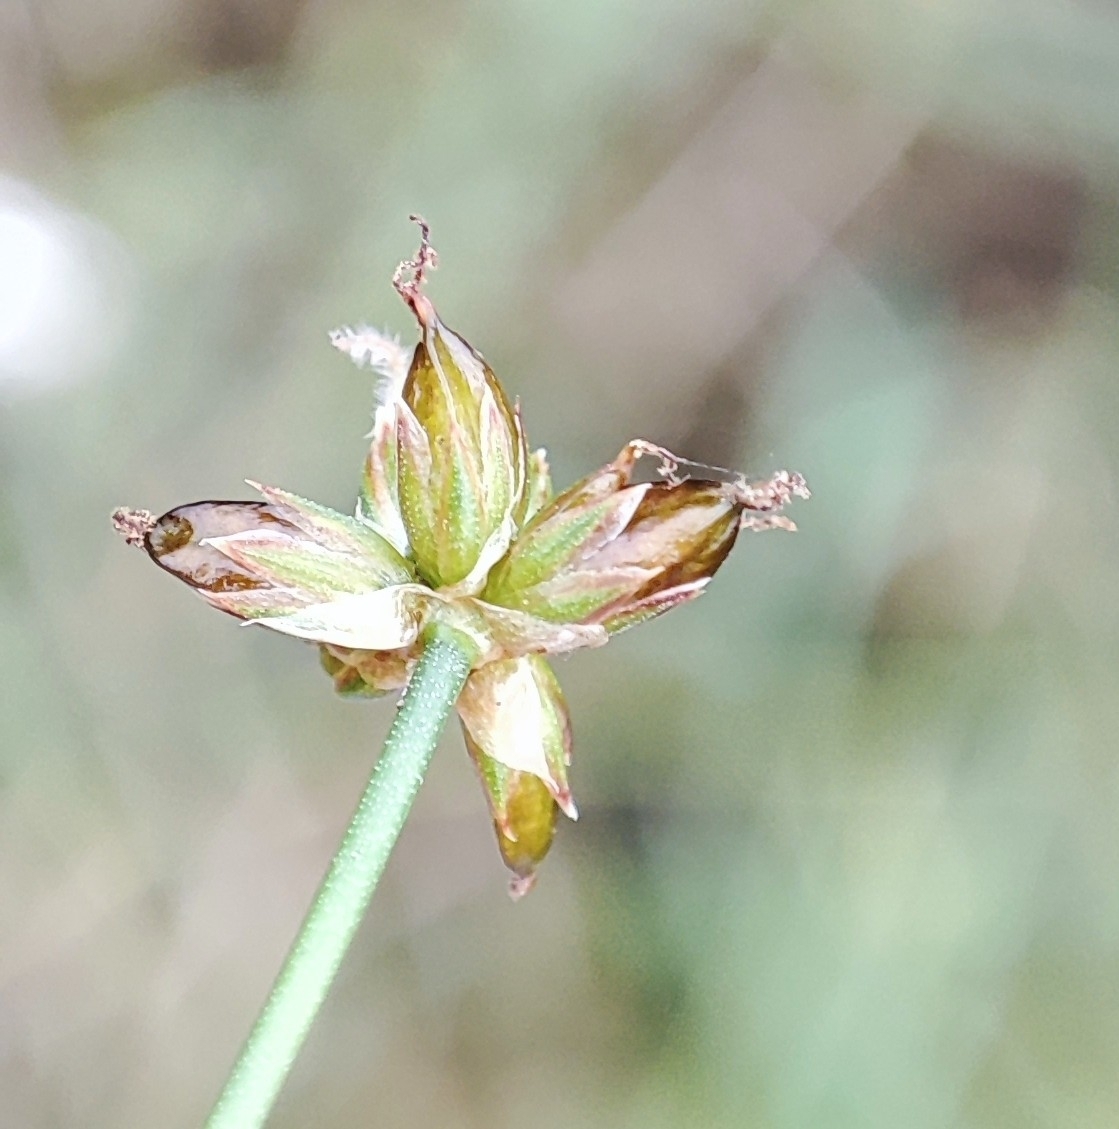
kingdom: Plantae
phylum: Tracheophyta
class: Liliopsida
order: Poales
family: Juncaceae
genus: Juncus
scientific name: Juncus articulatus
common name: Jointed rush
